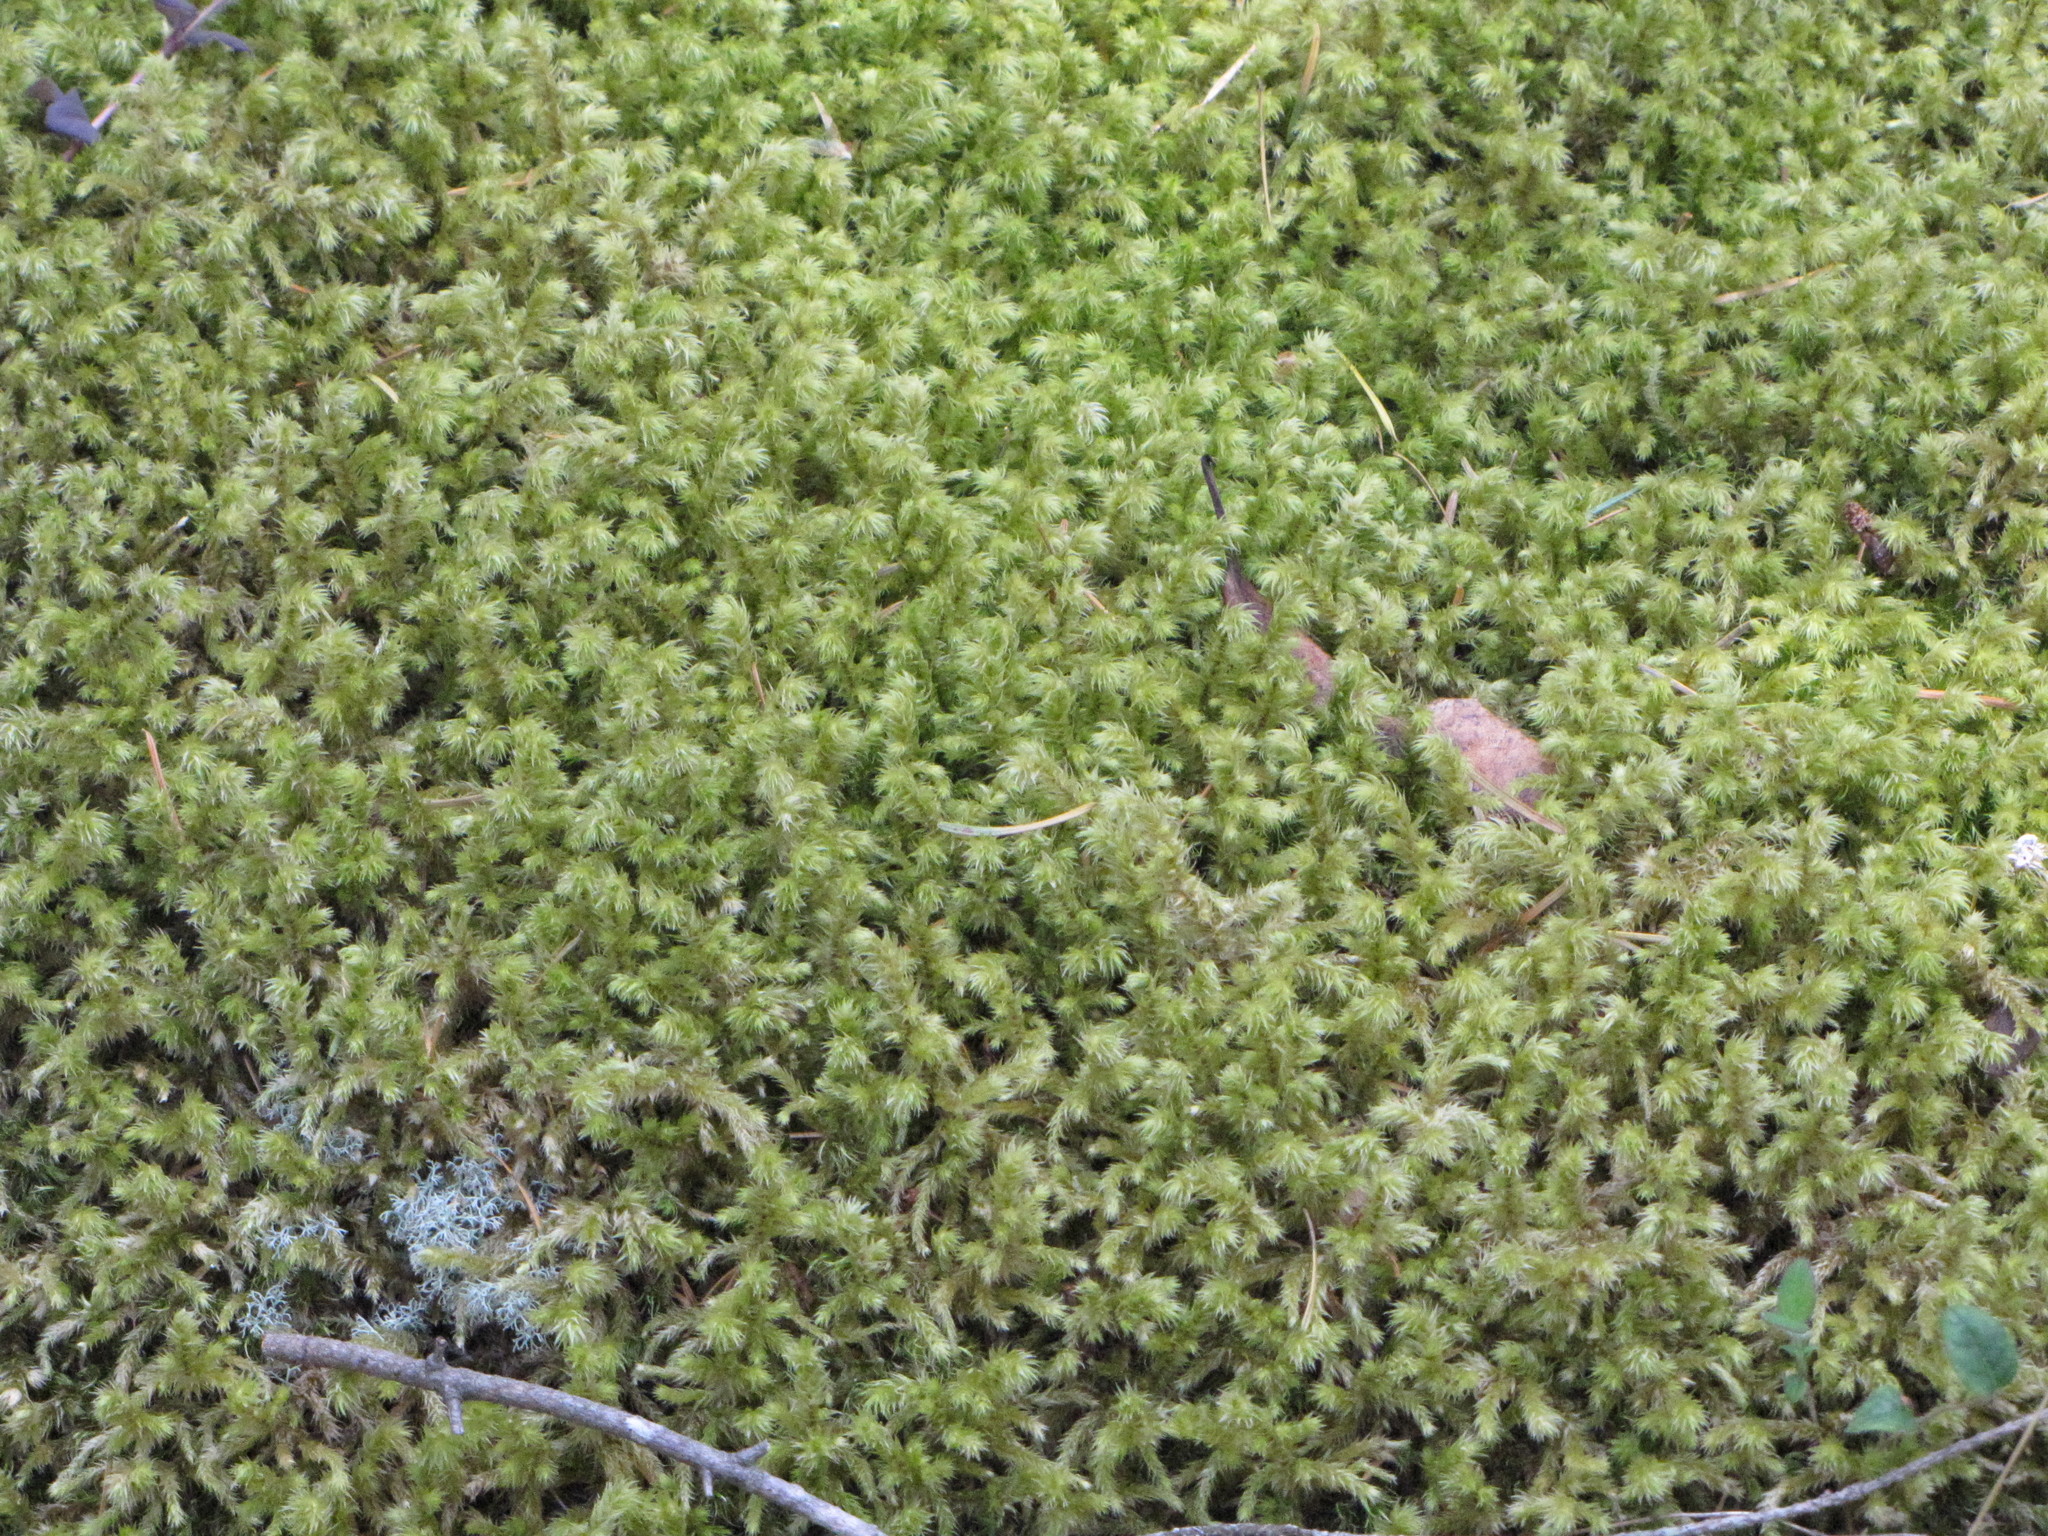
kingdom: Plantae
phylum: Bryophyta
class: Bryopsida
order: Hypnales
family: Hylocomiaceae
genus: Hylocomiadelphus
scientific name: Hylocomiadelphus triquetrus
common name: Rough goose neck moss
